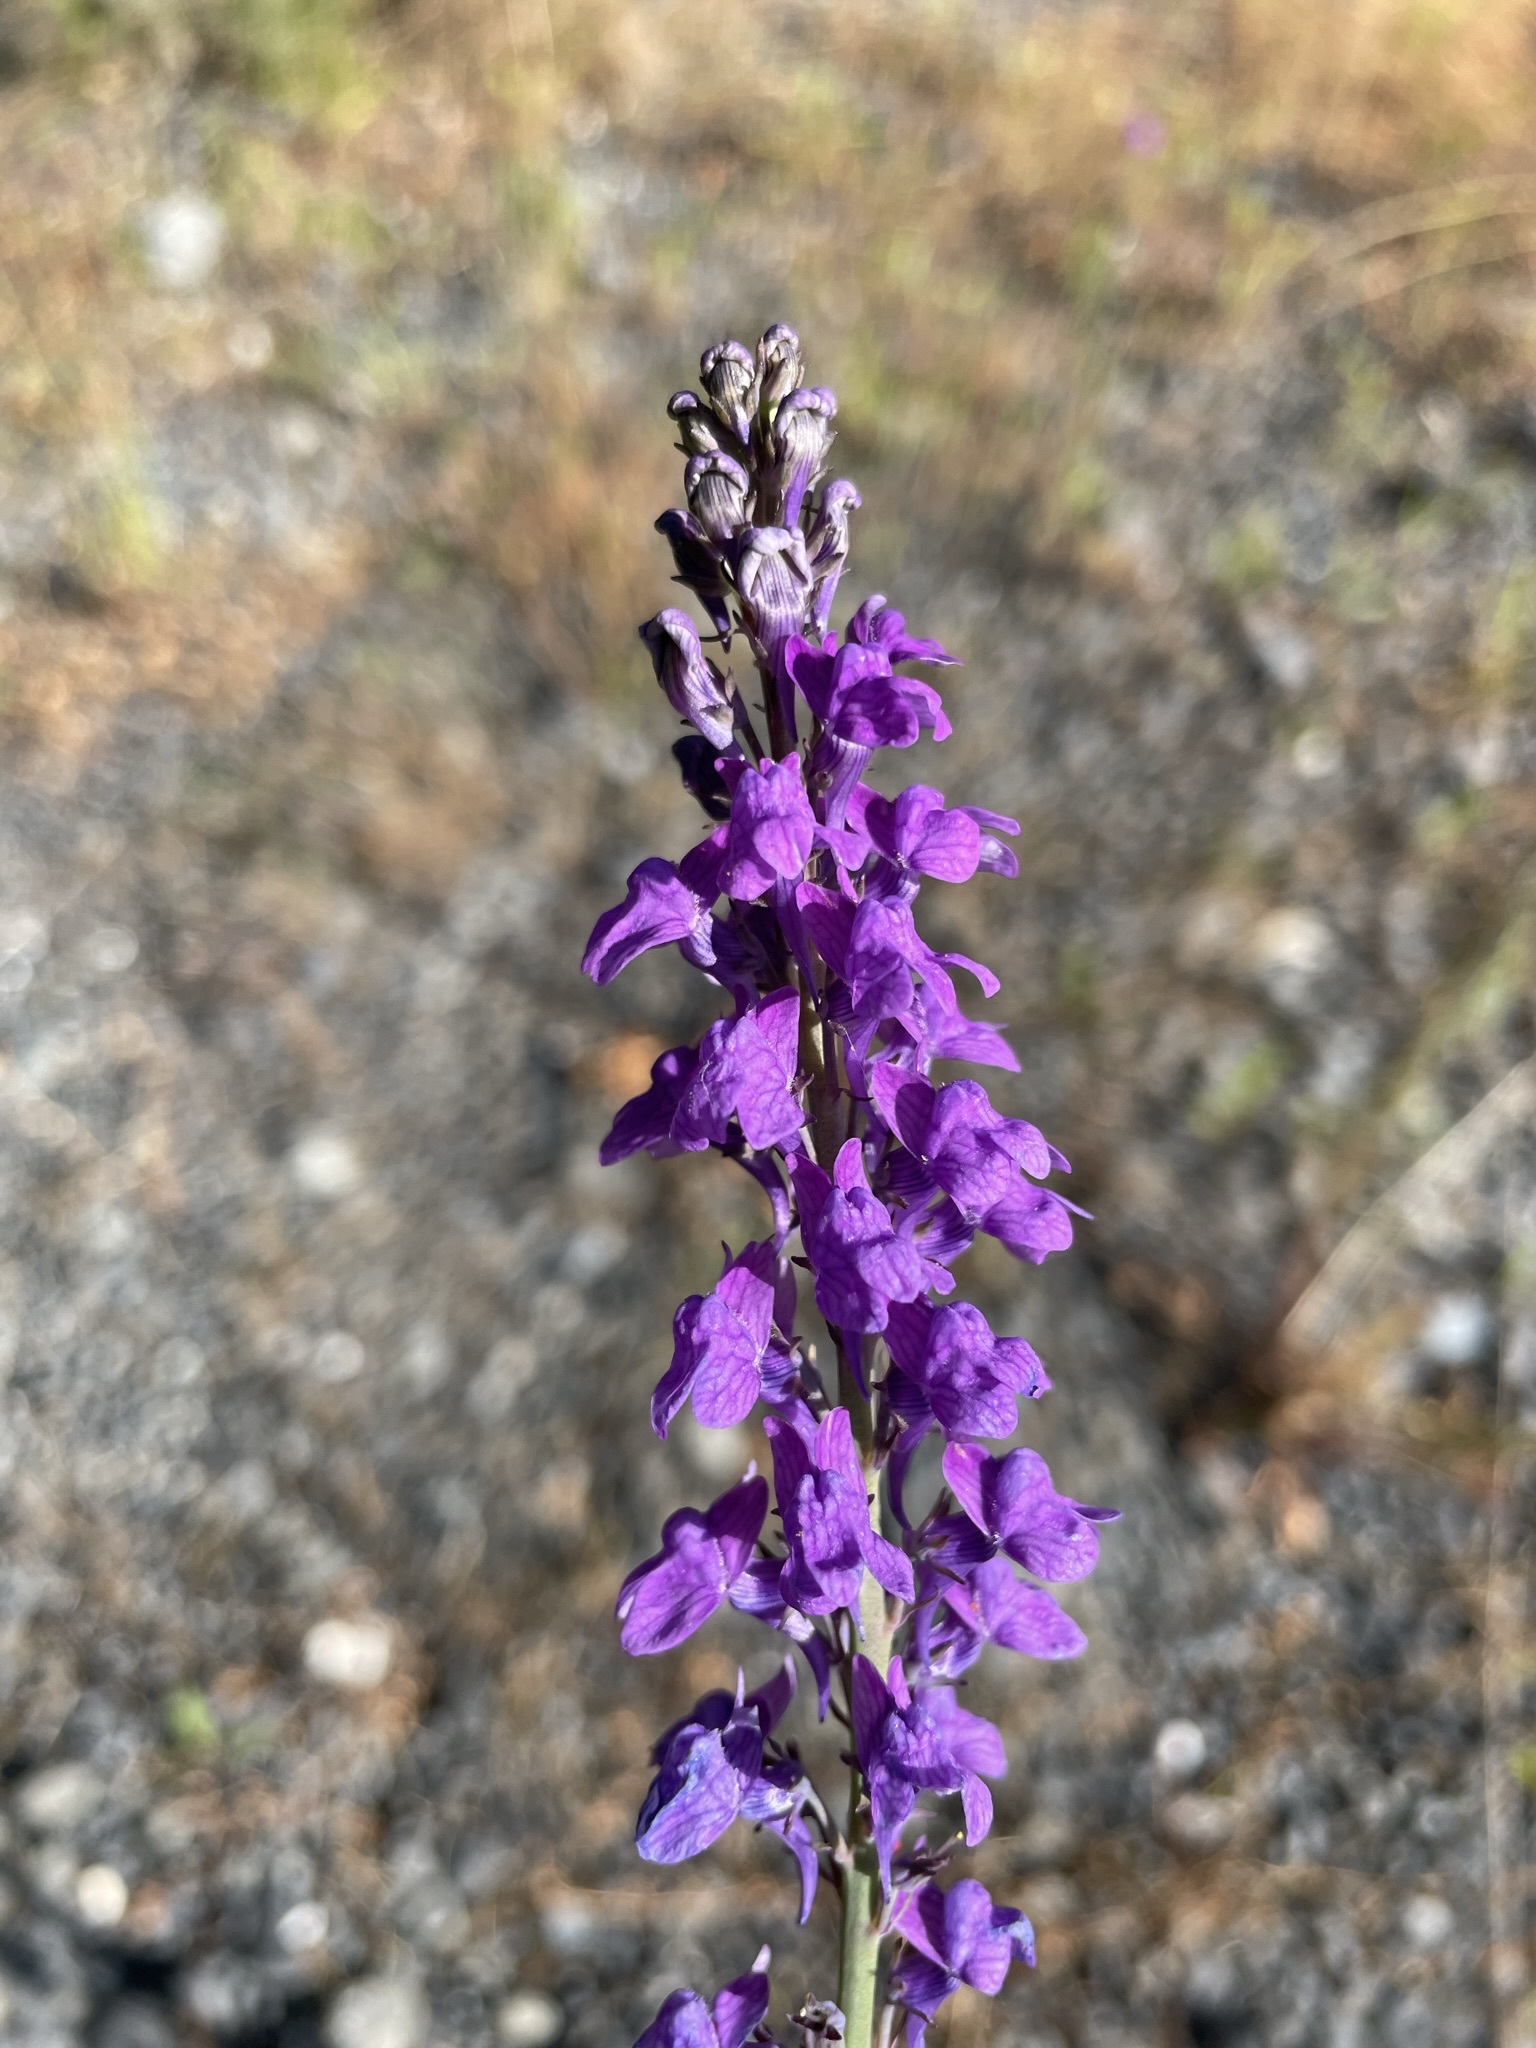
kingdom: Plantae
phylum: Tracheophyta
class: Magnoliopsida
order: Lamiales
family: Plantaginaceae
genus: Linaria
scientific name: Linaria purpurea
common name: Purple toadflax
